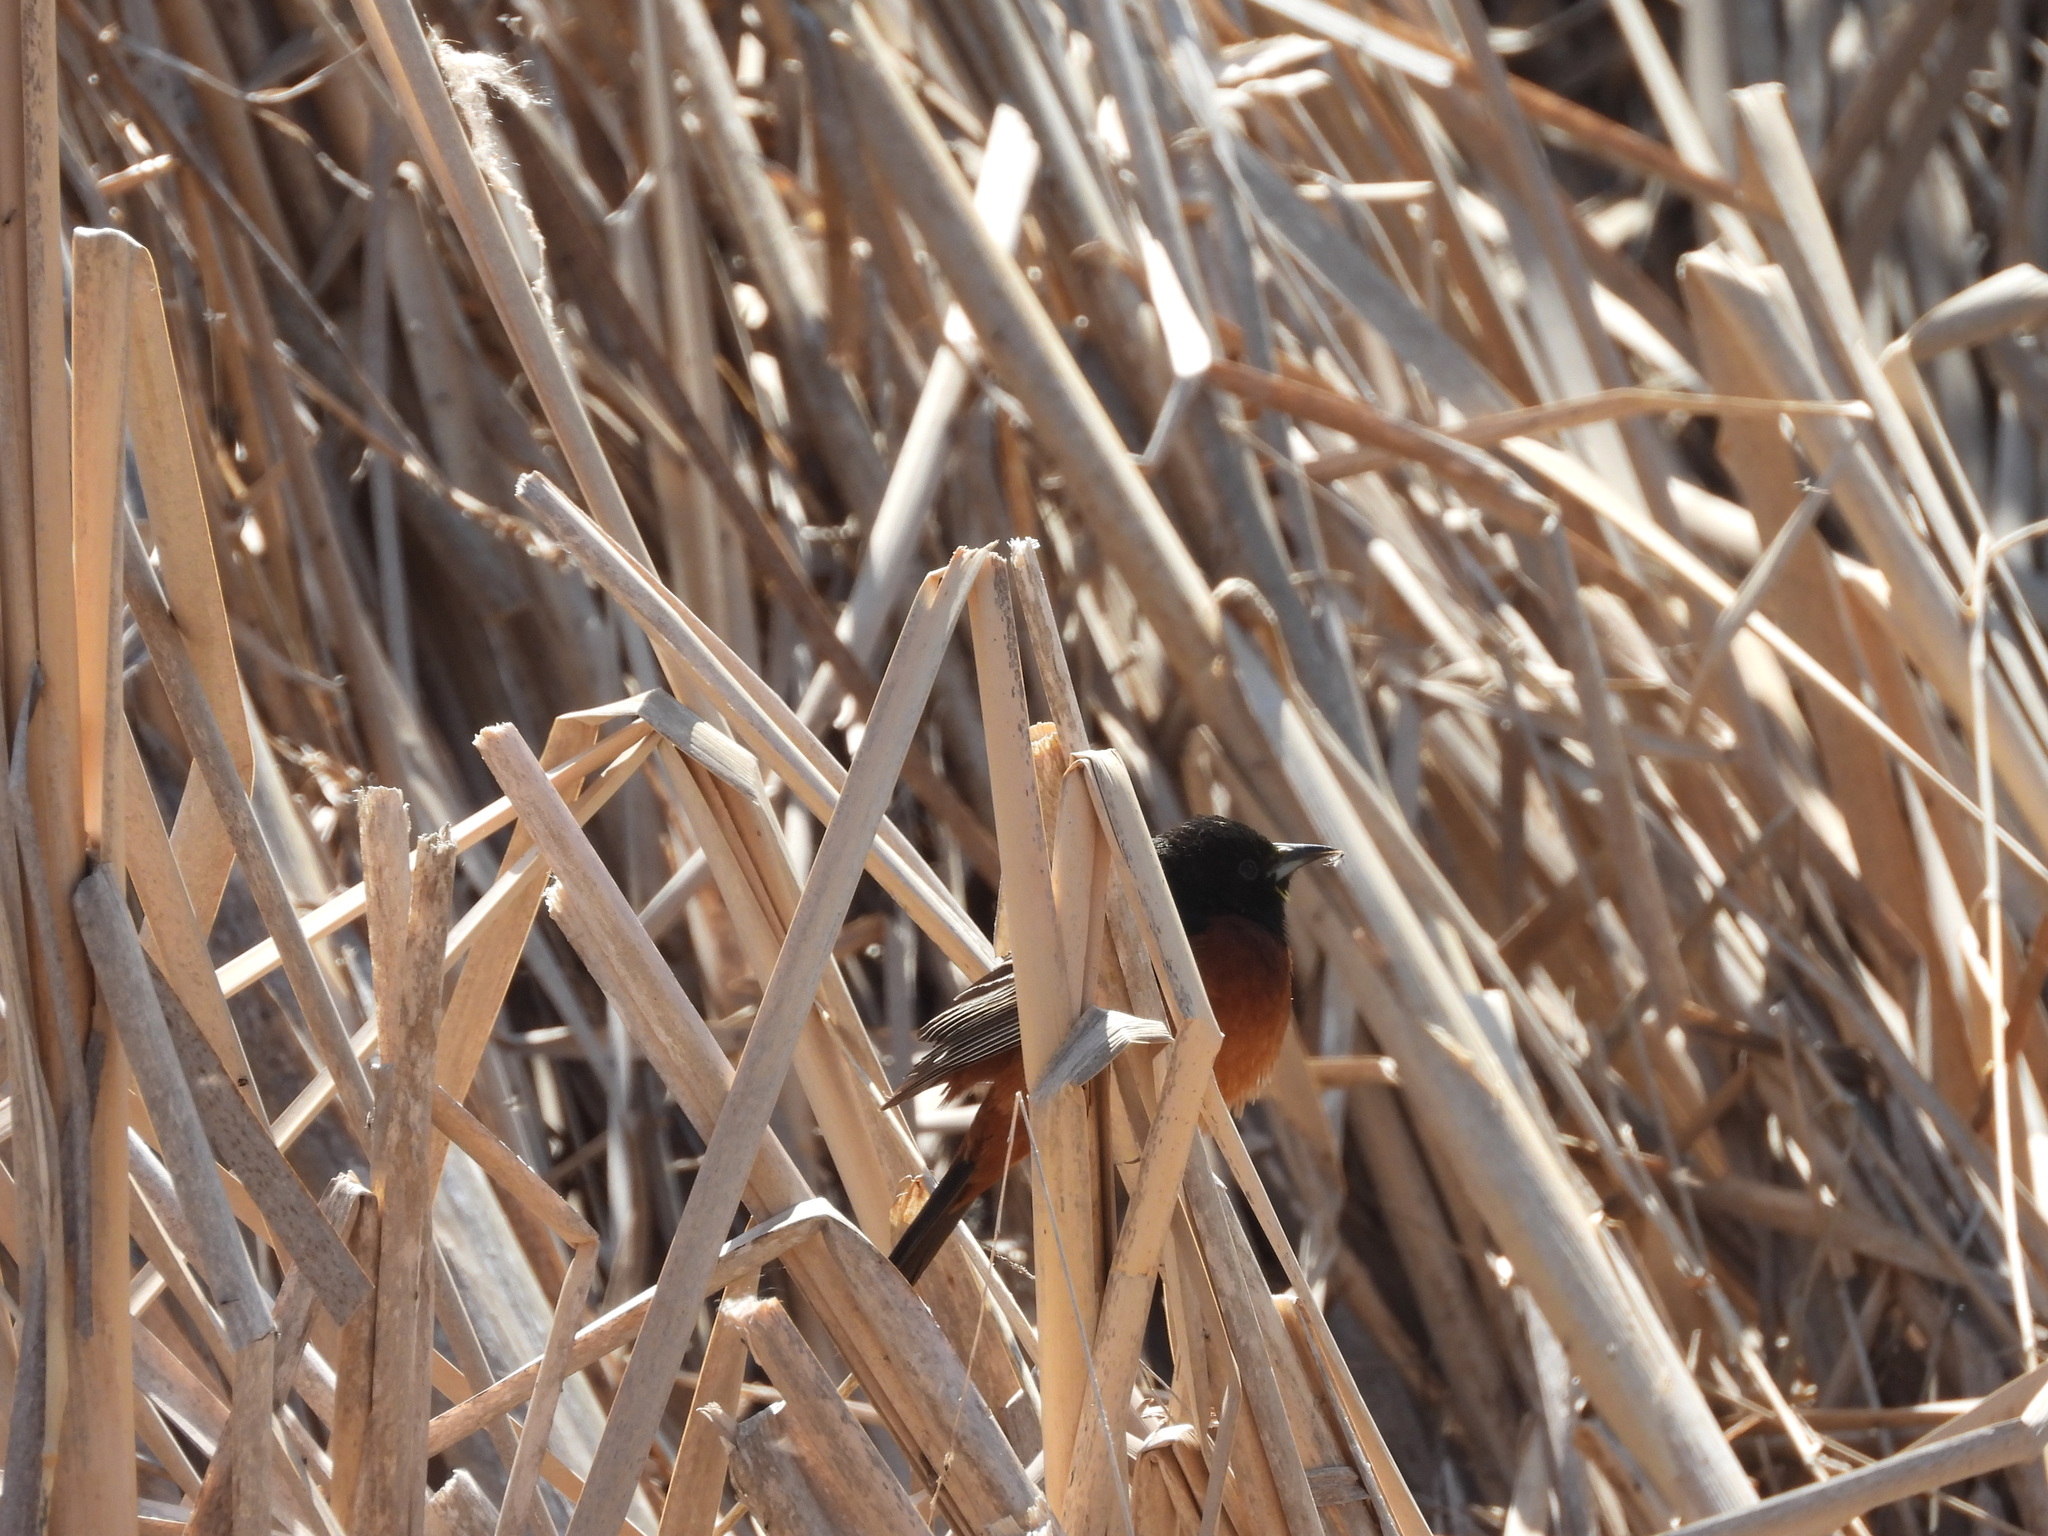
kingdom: Animalia
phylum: Chordata
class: Aves
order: Passeriformes
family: Icteridae
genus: Icterus
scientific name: Icterus spurius
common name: Orchard oriole
